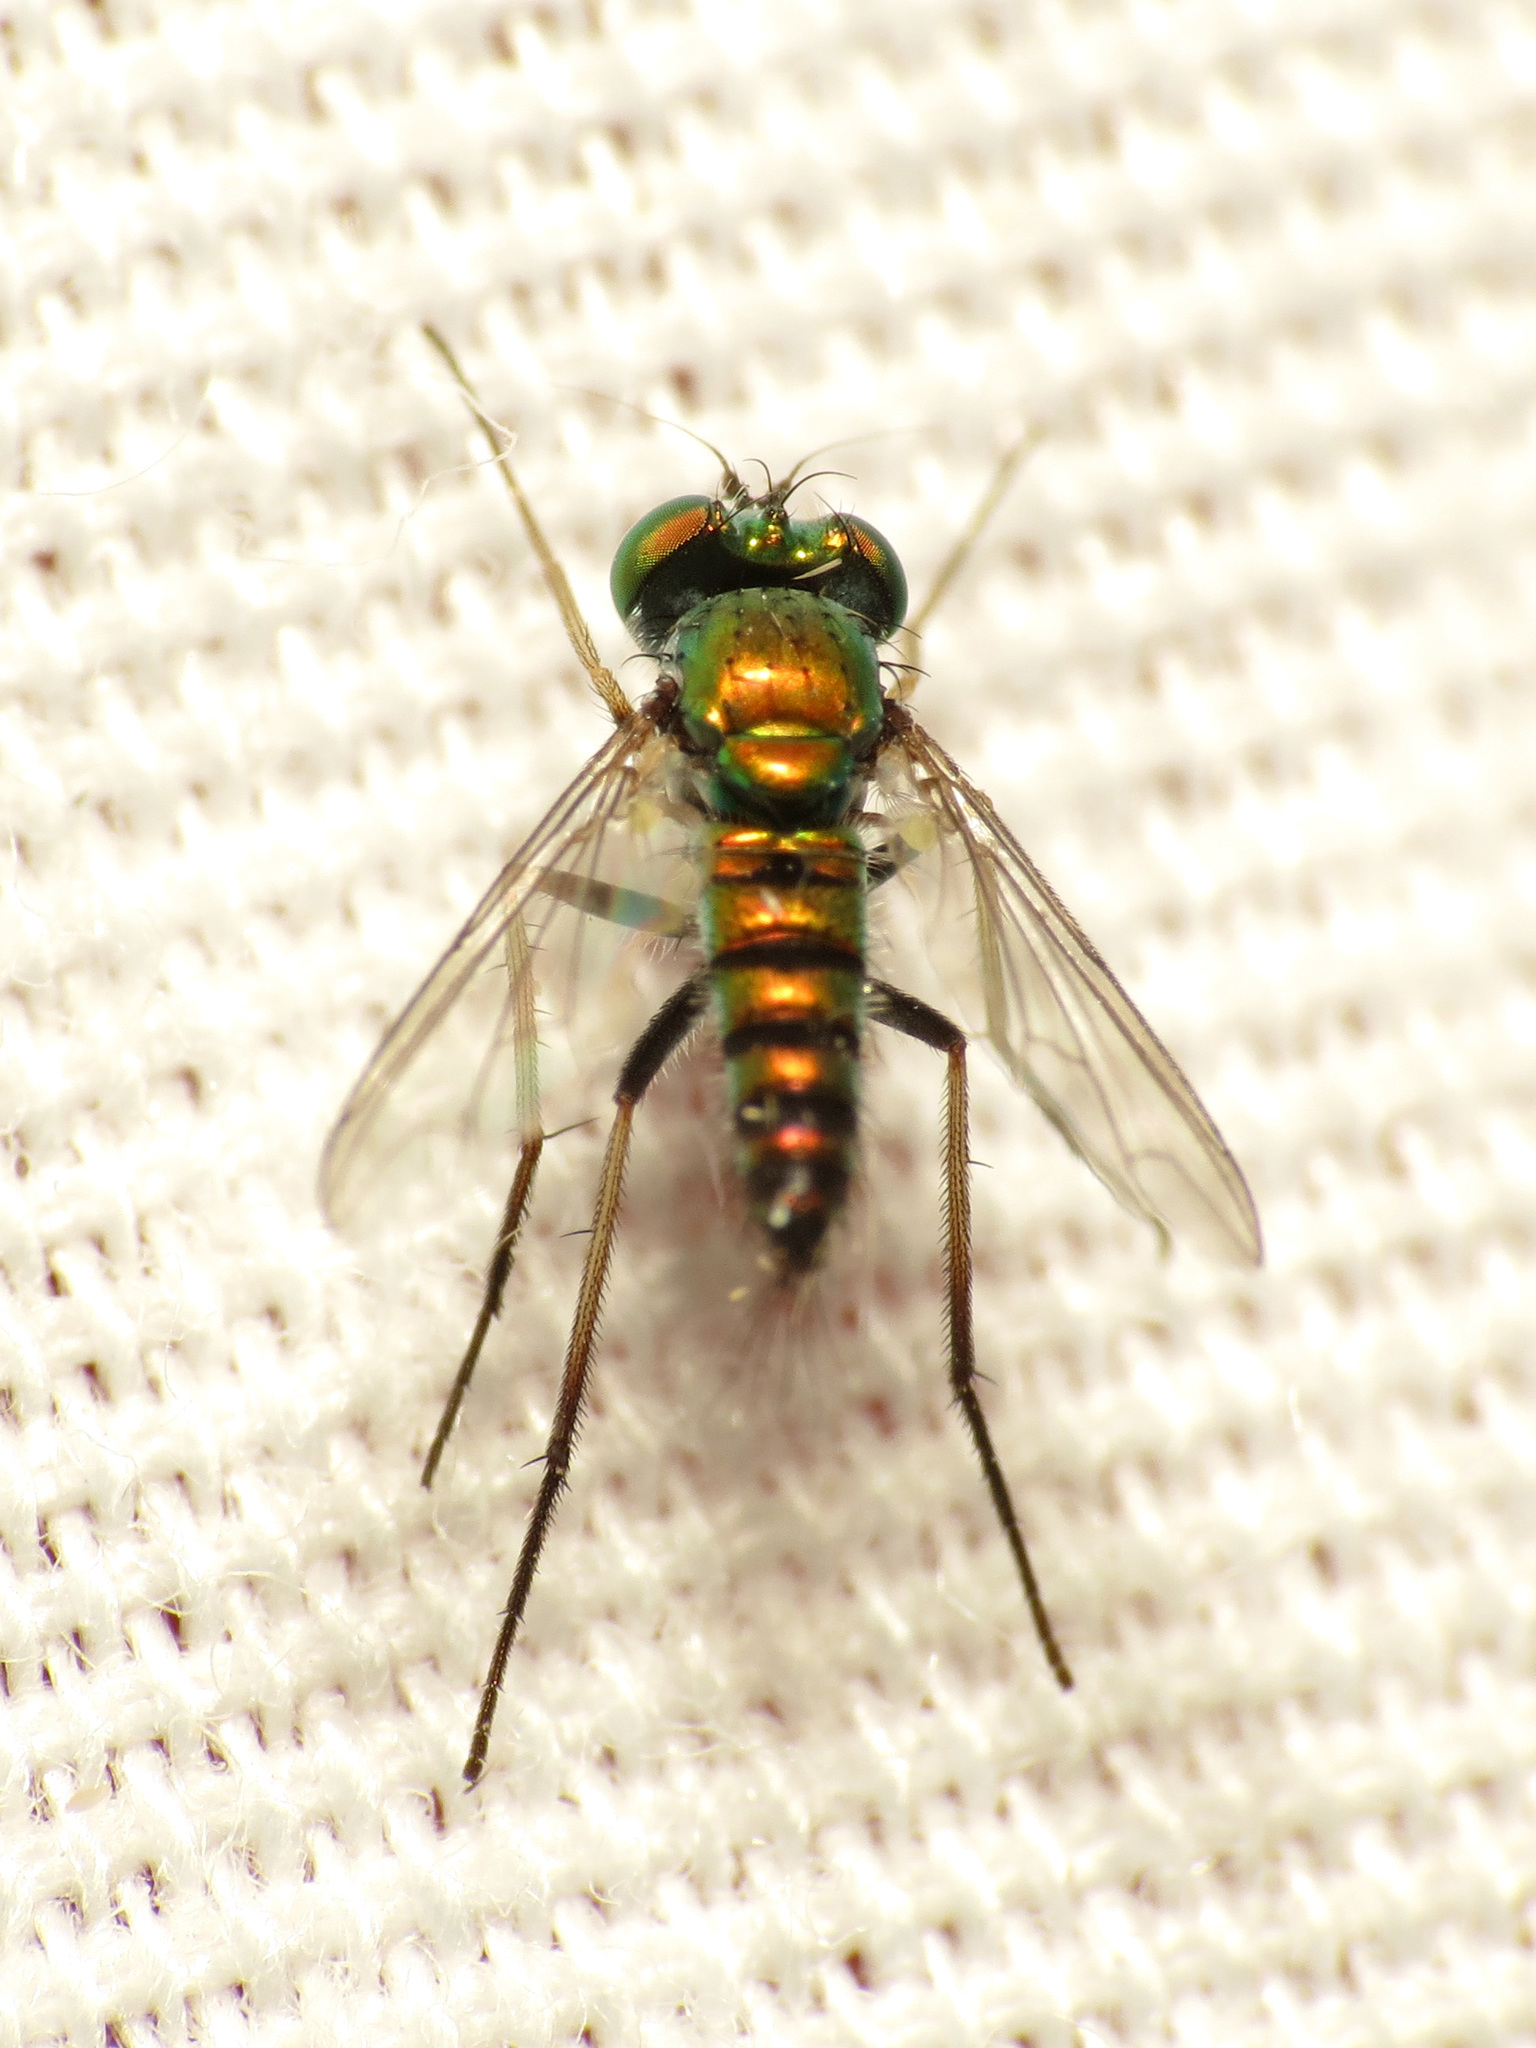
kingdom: Animalia
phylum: Arthropoda
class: Insecta
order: Diptera
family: Dolichopodidae
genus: Condylostylus
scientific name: Condylostylus caudatus
